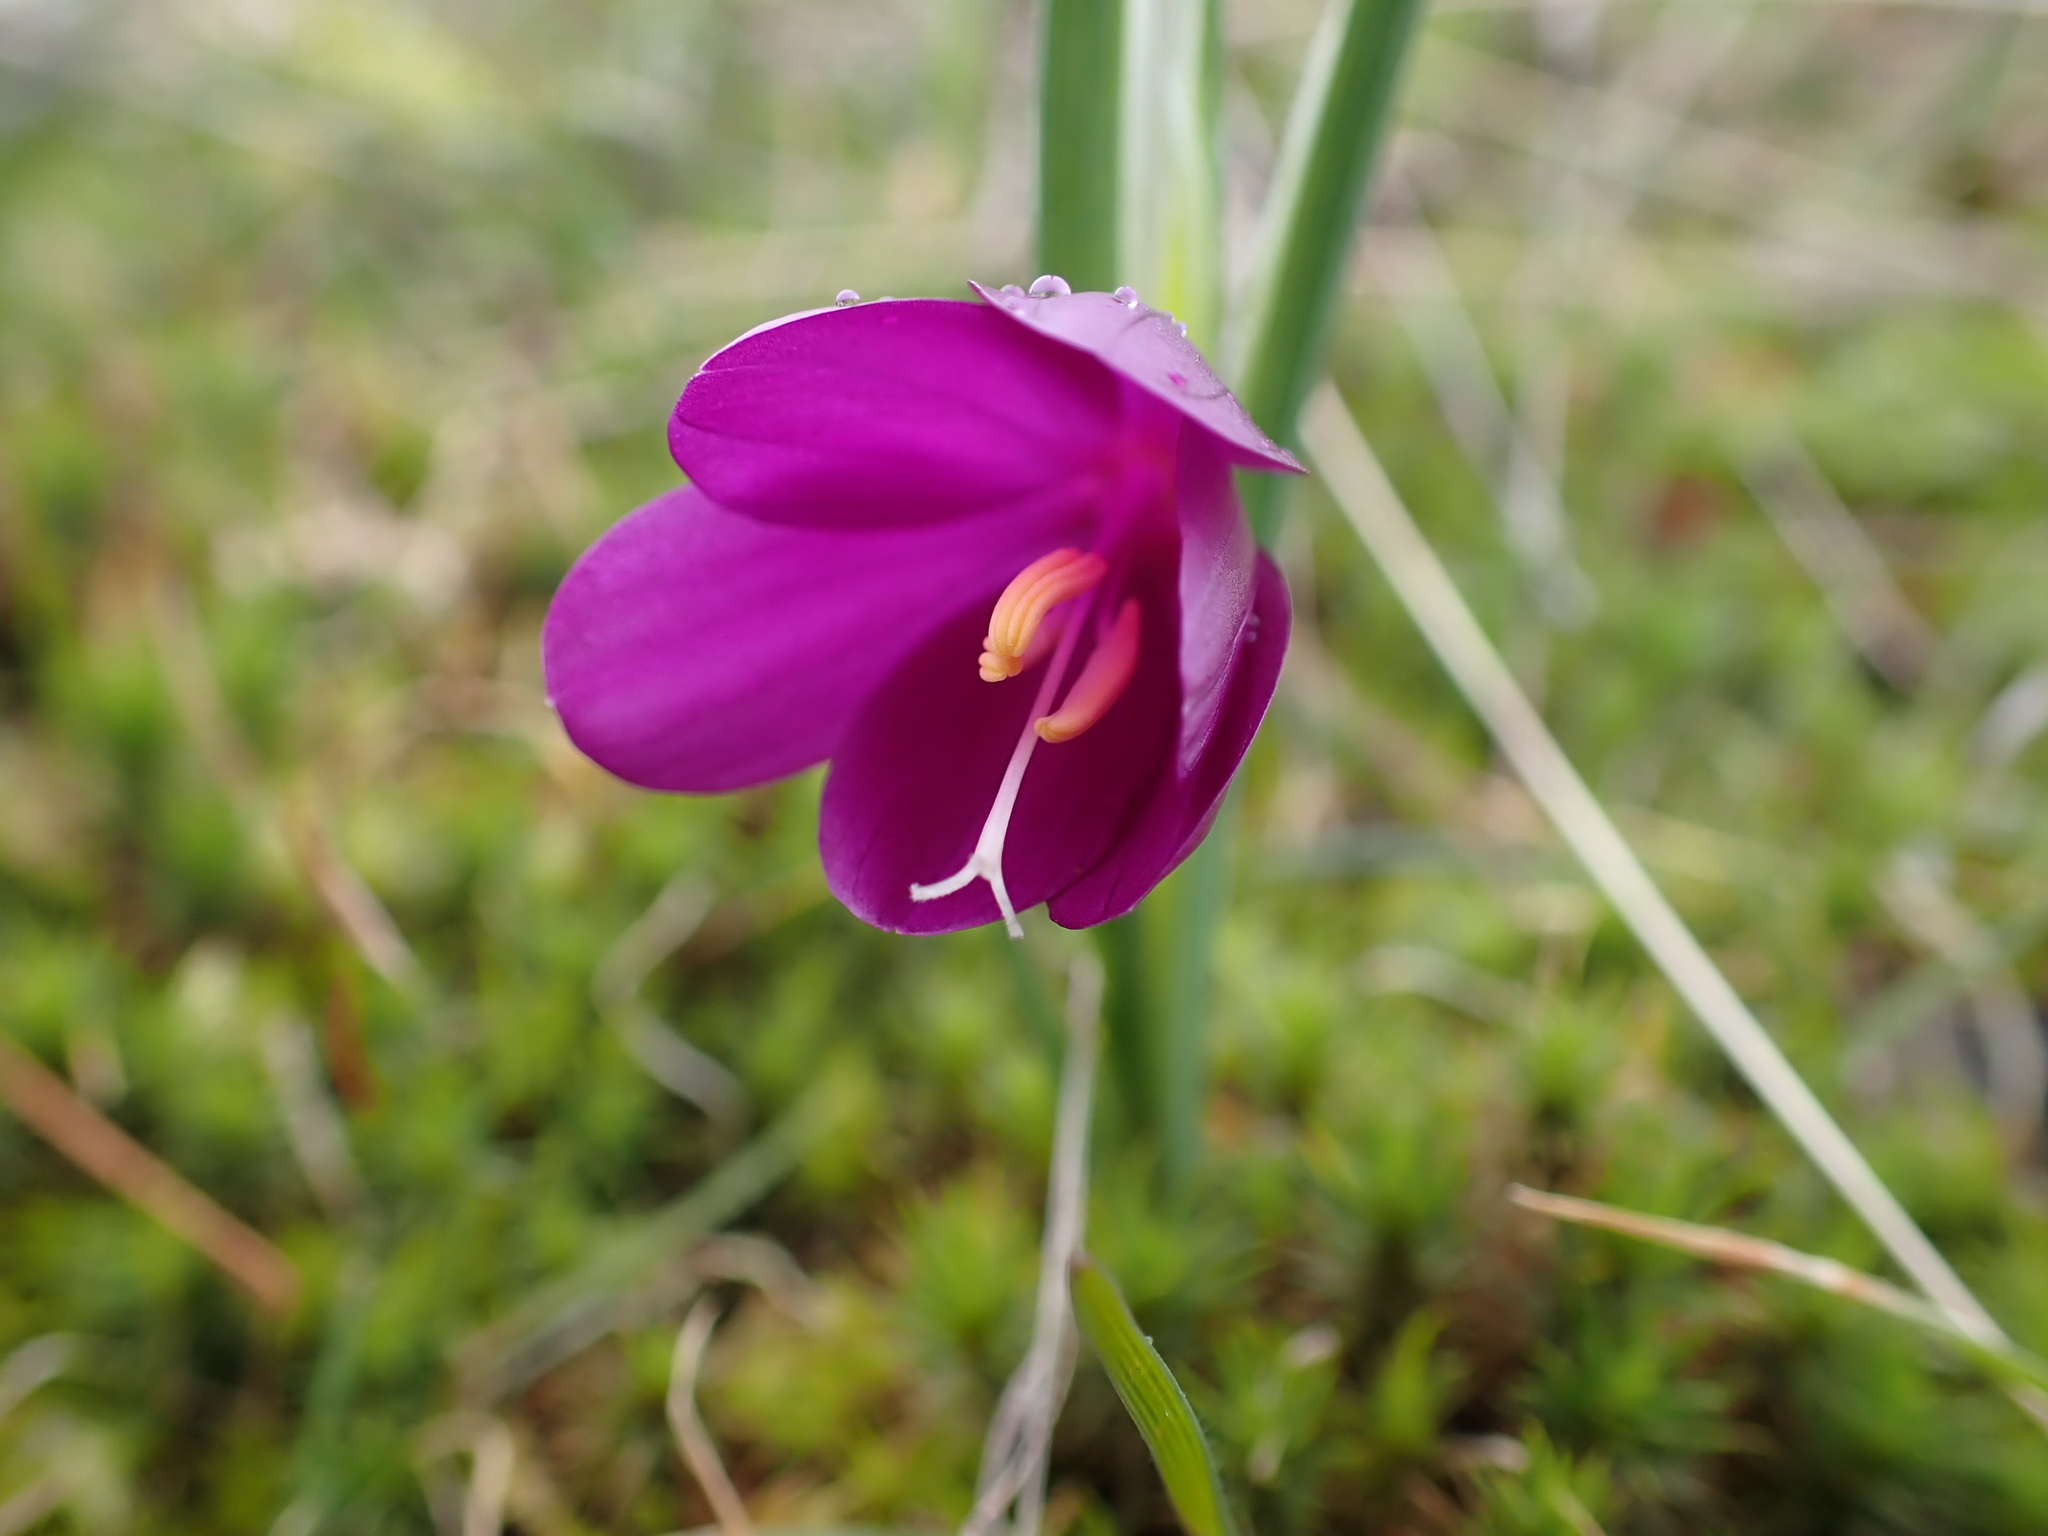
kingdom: Plantae
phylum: Tracheophyta
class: Liliopsida
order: Asparagales
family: Iridaceae
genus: Olsynium
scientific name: Olsynium douglasii
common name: Douglas' grasswidow
